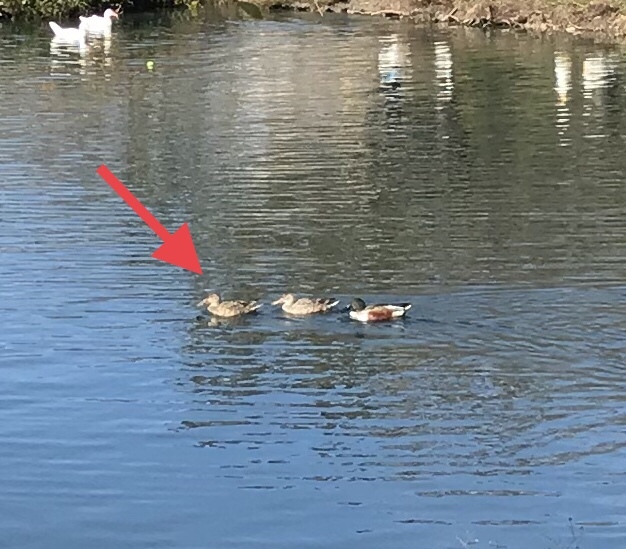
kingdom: Animalia
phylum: Chordata
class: Aves
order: Anseriformes
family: Anatidae
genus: Spatula
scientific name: Spatula clypeata
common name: Northern shoveler
